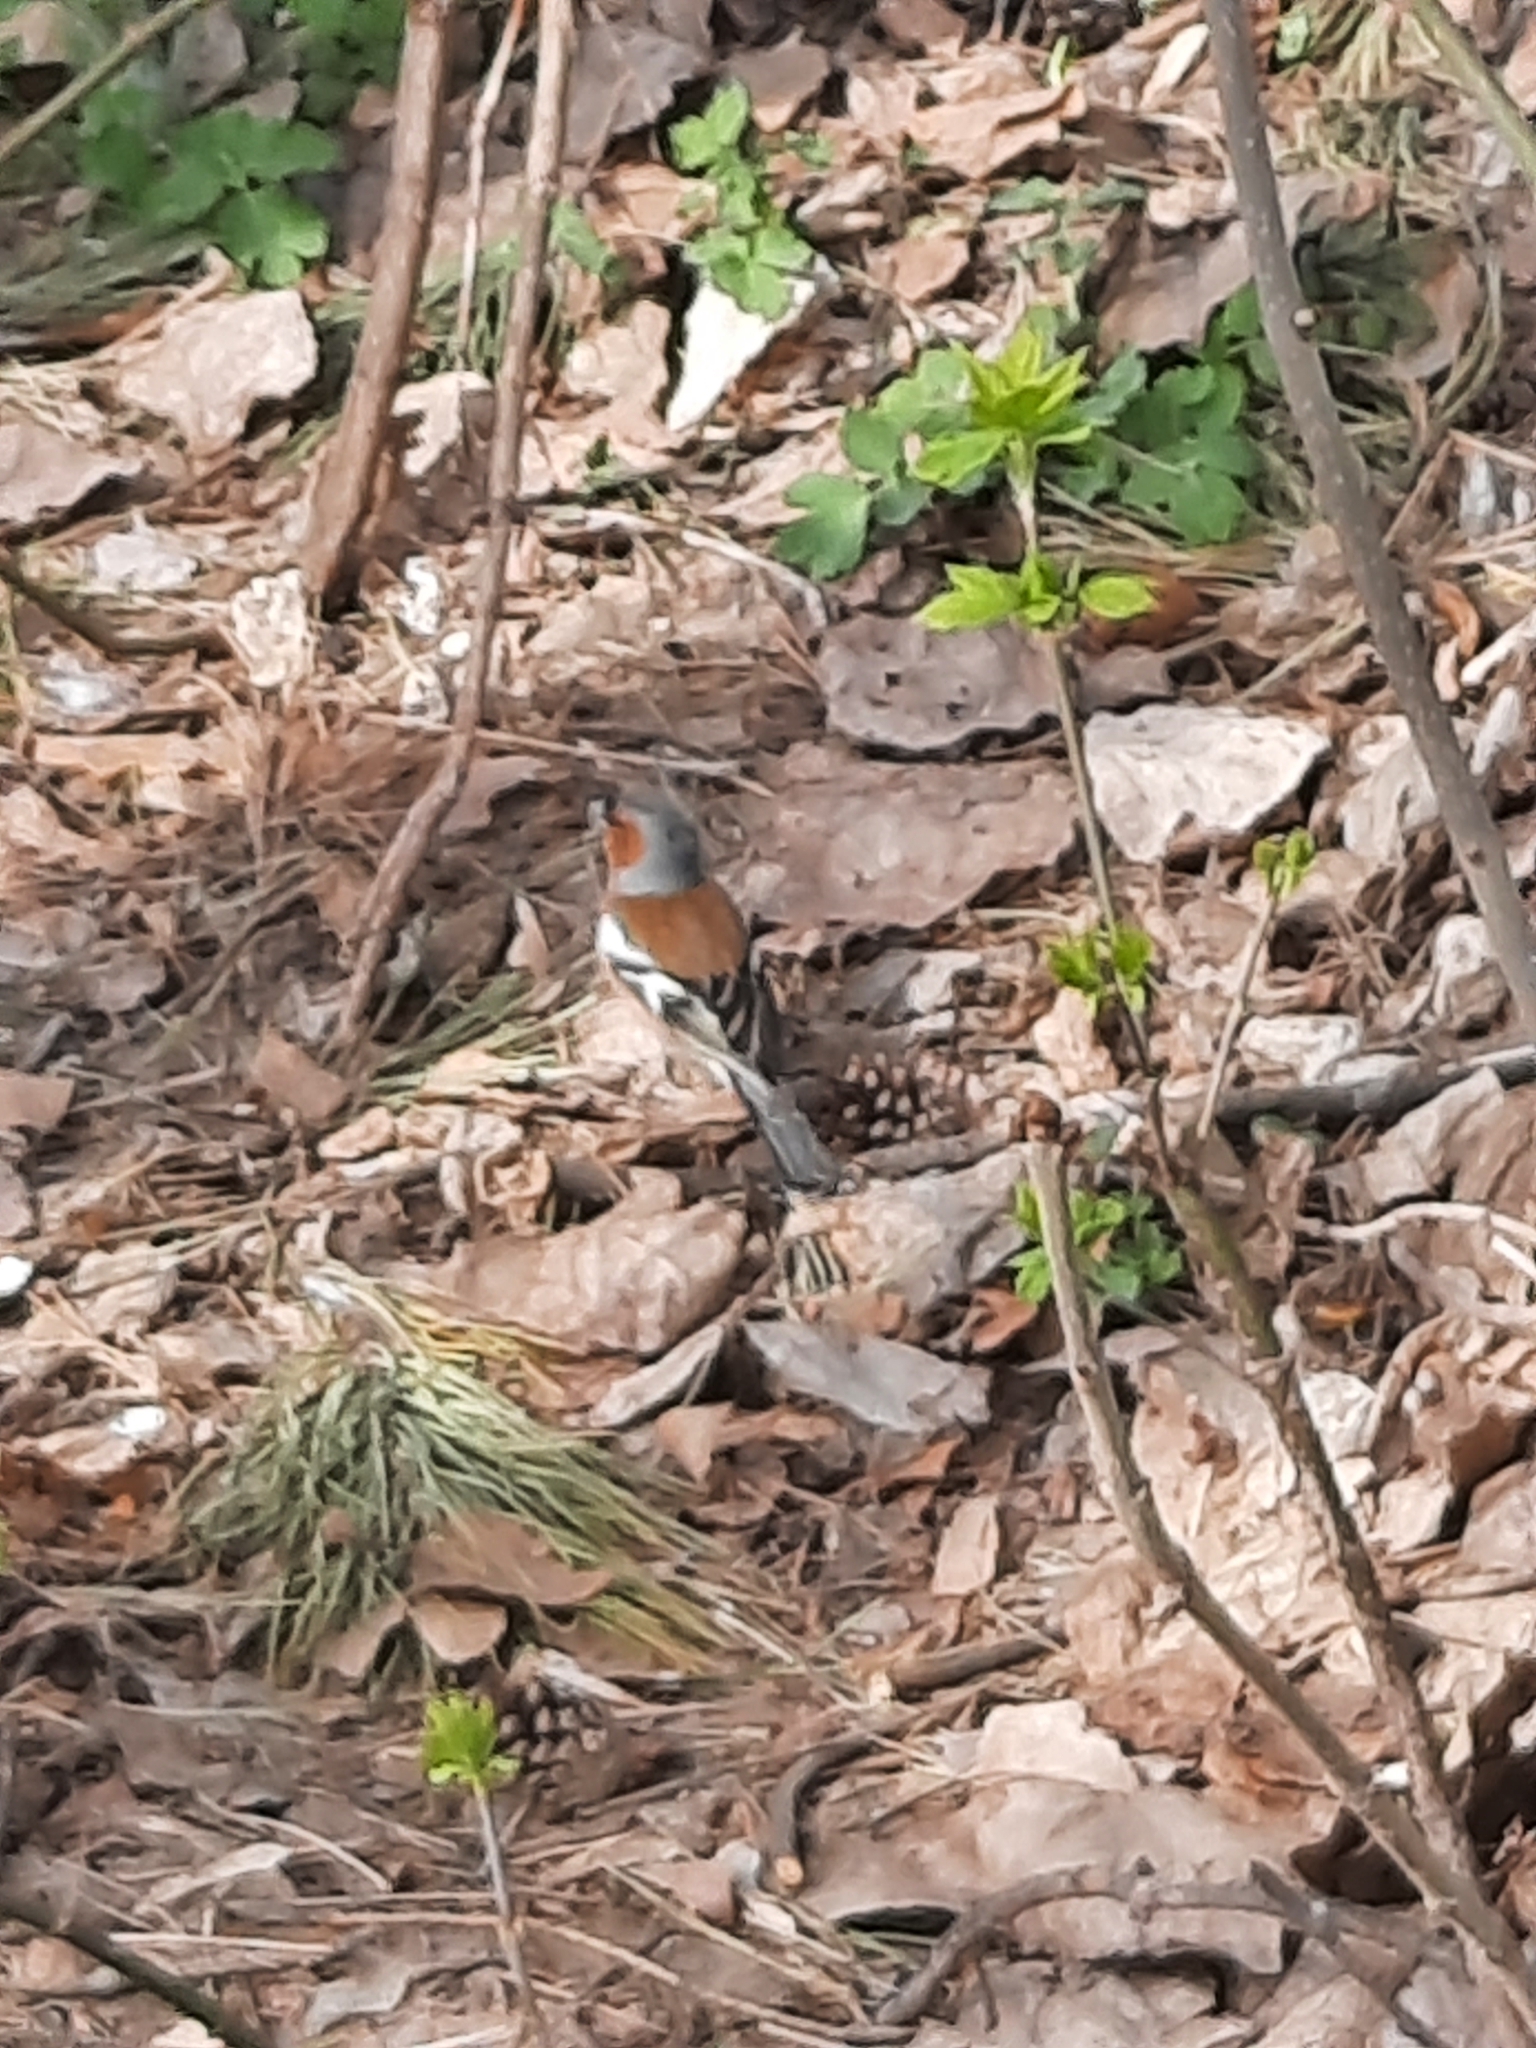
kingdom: Animalia
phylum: Chordata
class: Aves
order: Passeriformes
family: Fringillidae
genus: Fringilla
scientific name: Fringilla coelebs
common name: Common chaffinch
